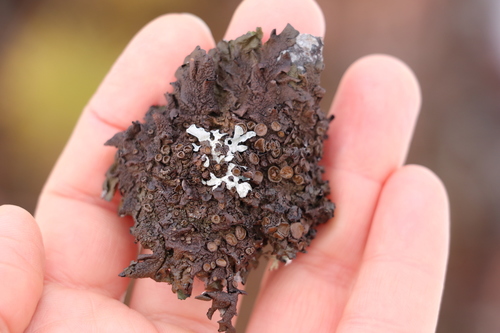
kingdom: Fungi
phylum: Ascomycota
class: Lecanoromycetes
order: Lecanorales
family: Parmeliaceae
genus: Melanohalea
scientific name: Melanohalea olivacea
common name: Spotted camouflage lichen
